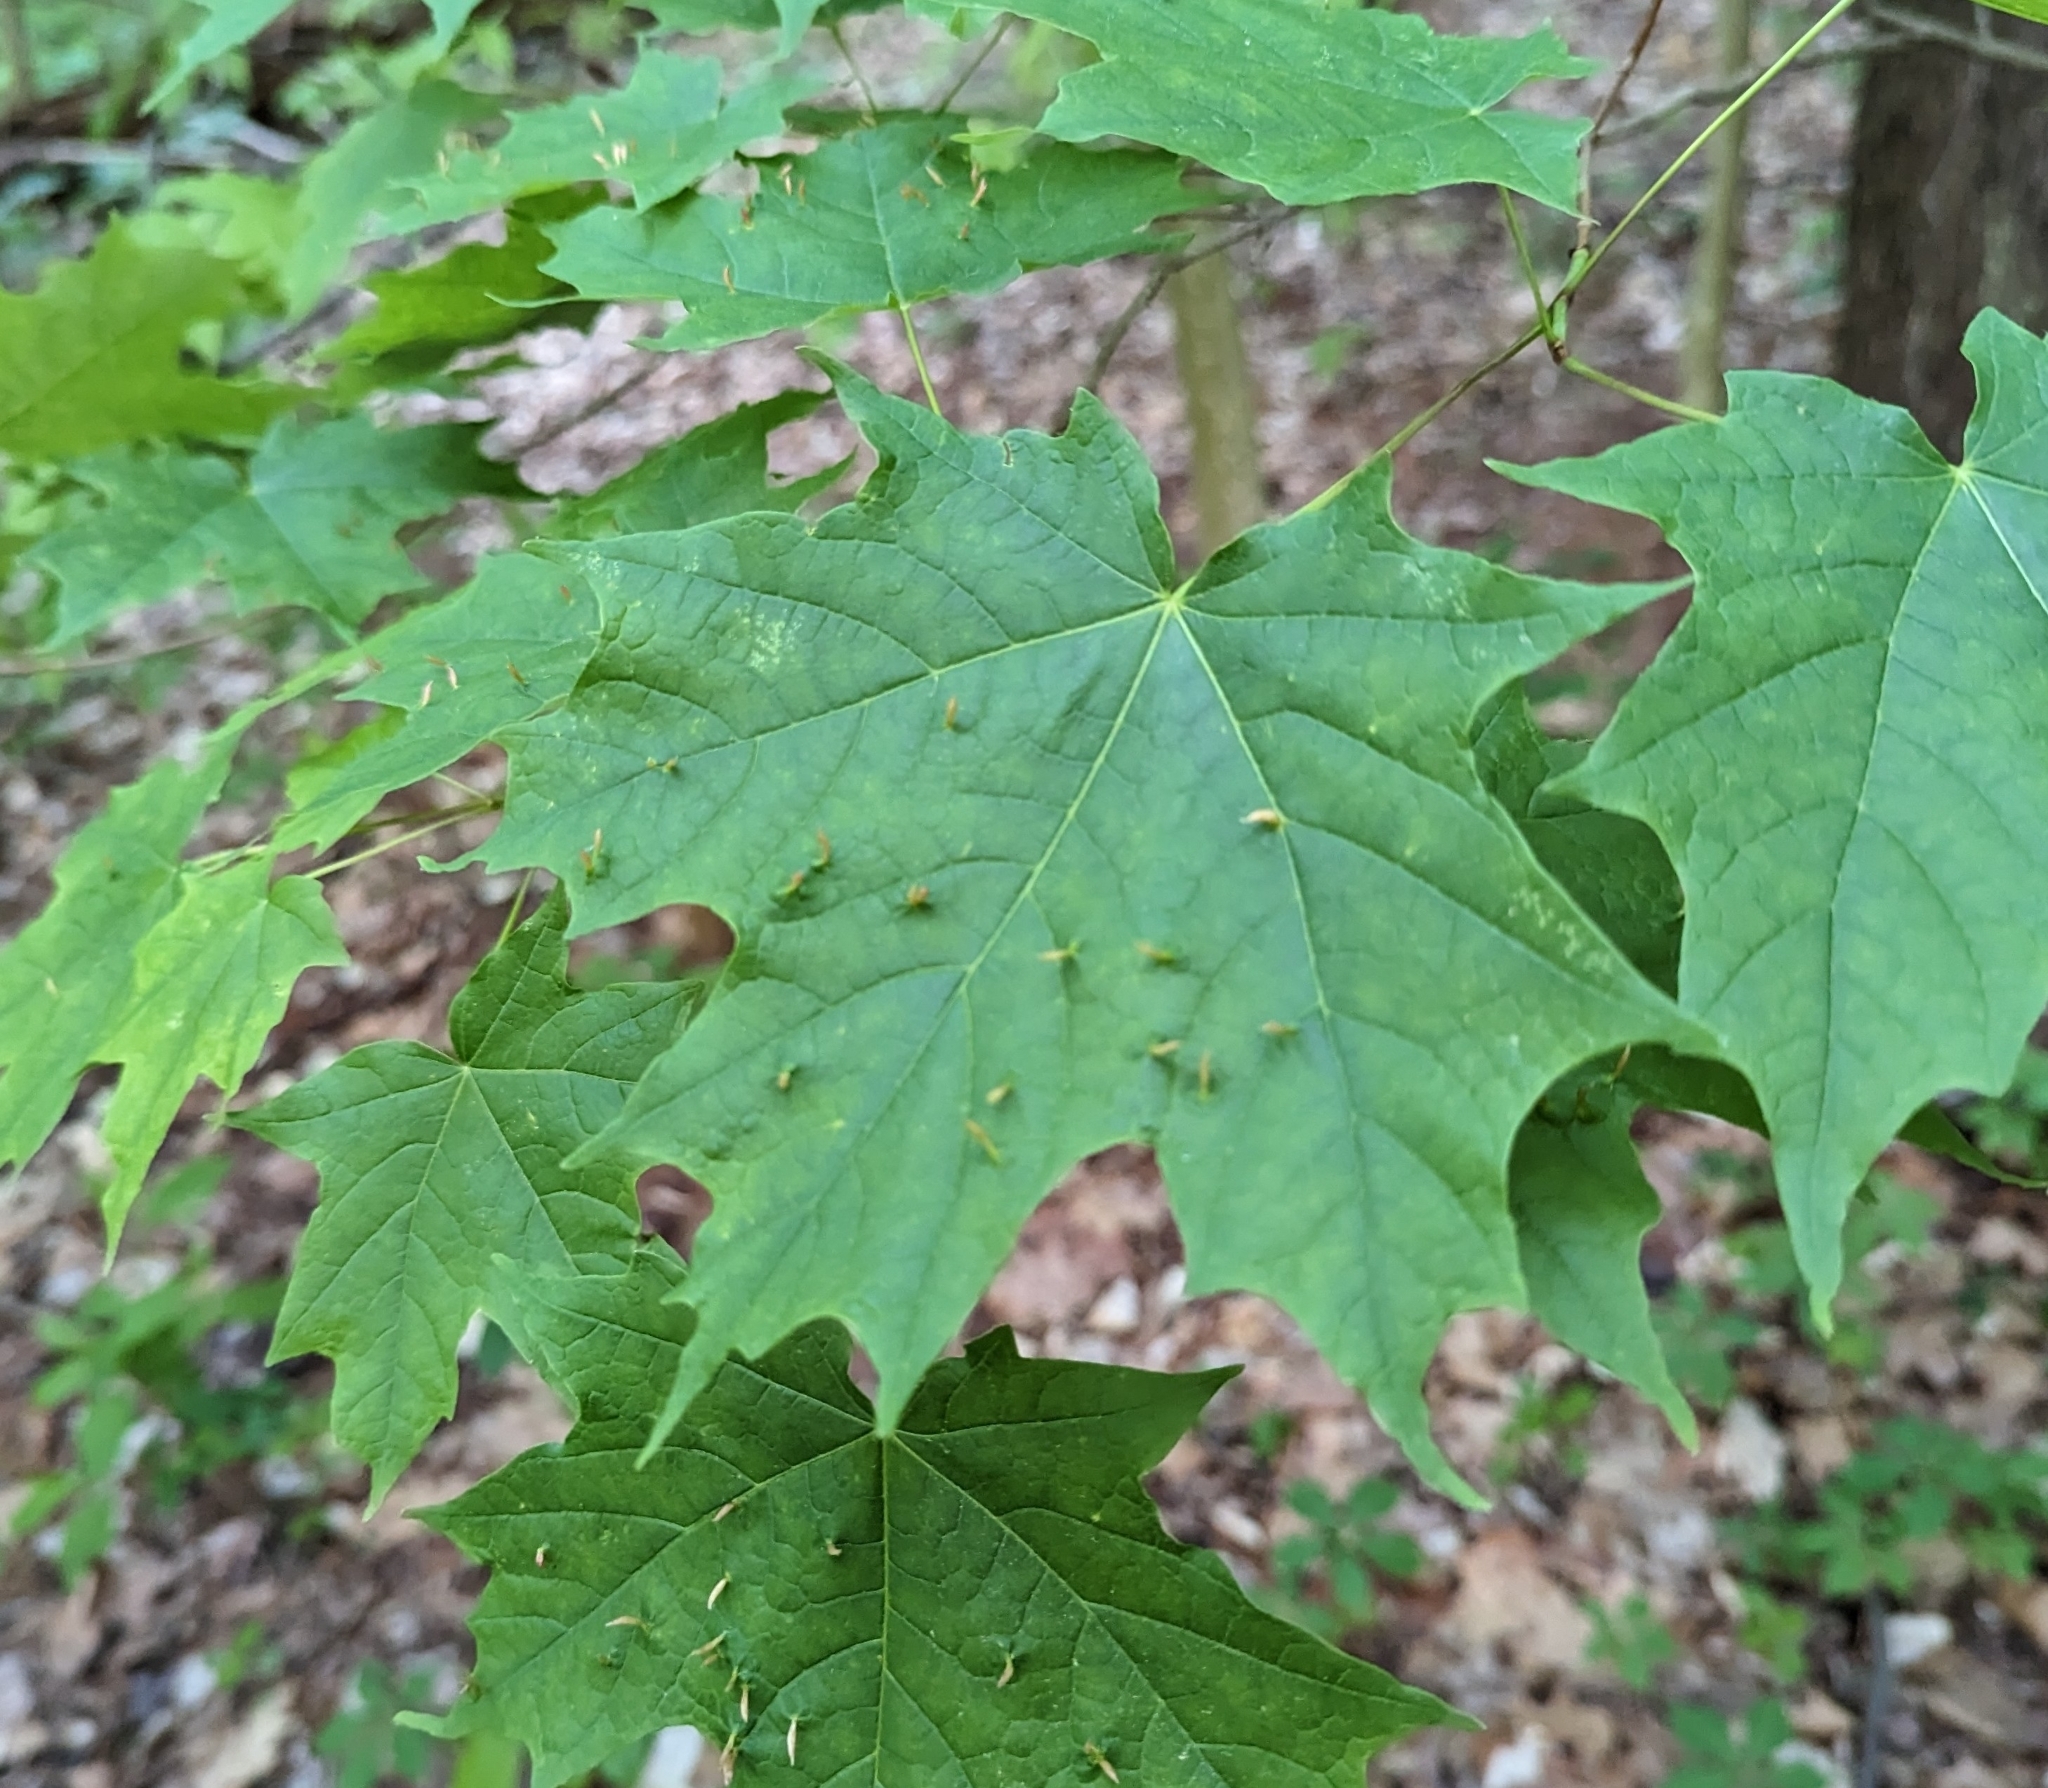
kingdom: Animalia
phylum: Arthropoda
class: Arachnida
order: Trombidiformes
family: Eriophyidae
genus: Vasates
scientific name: Vasates aceriscrumena
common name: Maple spindle gall mite
